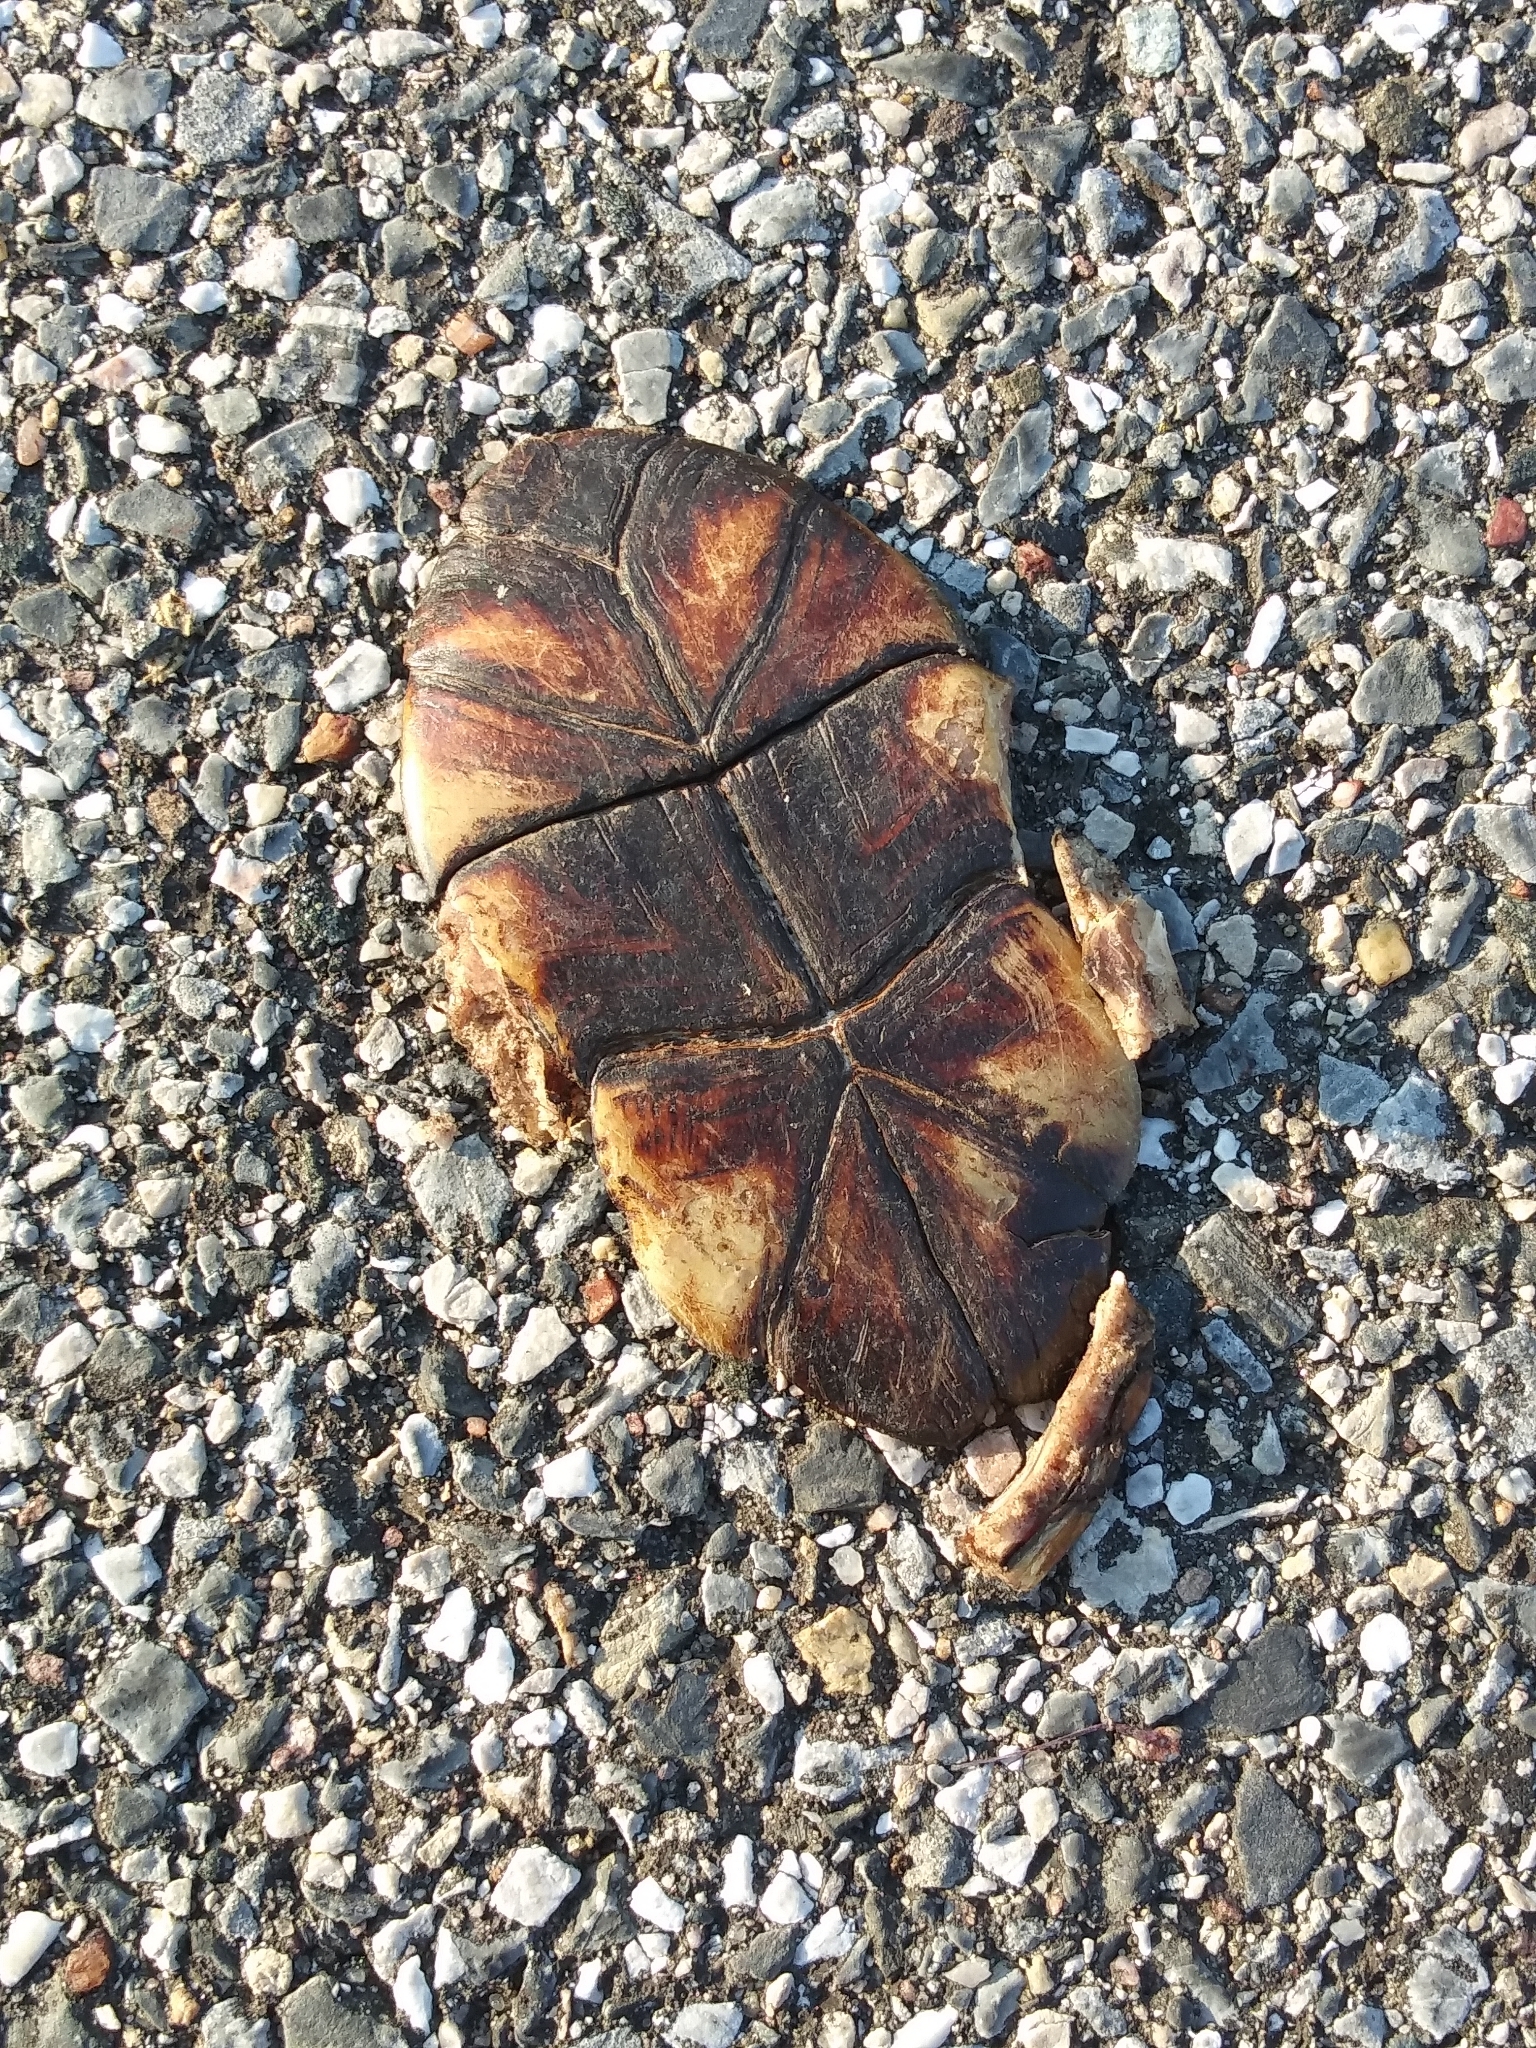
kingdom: Animalia
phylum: Chordata
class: Testudines
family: Kinosternidae
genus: Kinosternon
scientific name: Kinosternon subrubrum
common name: Eastern mud turtle
